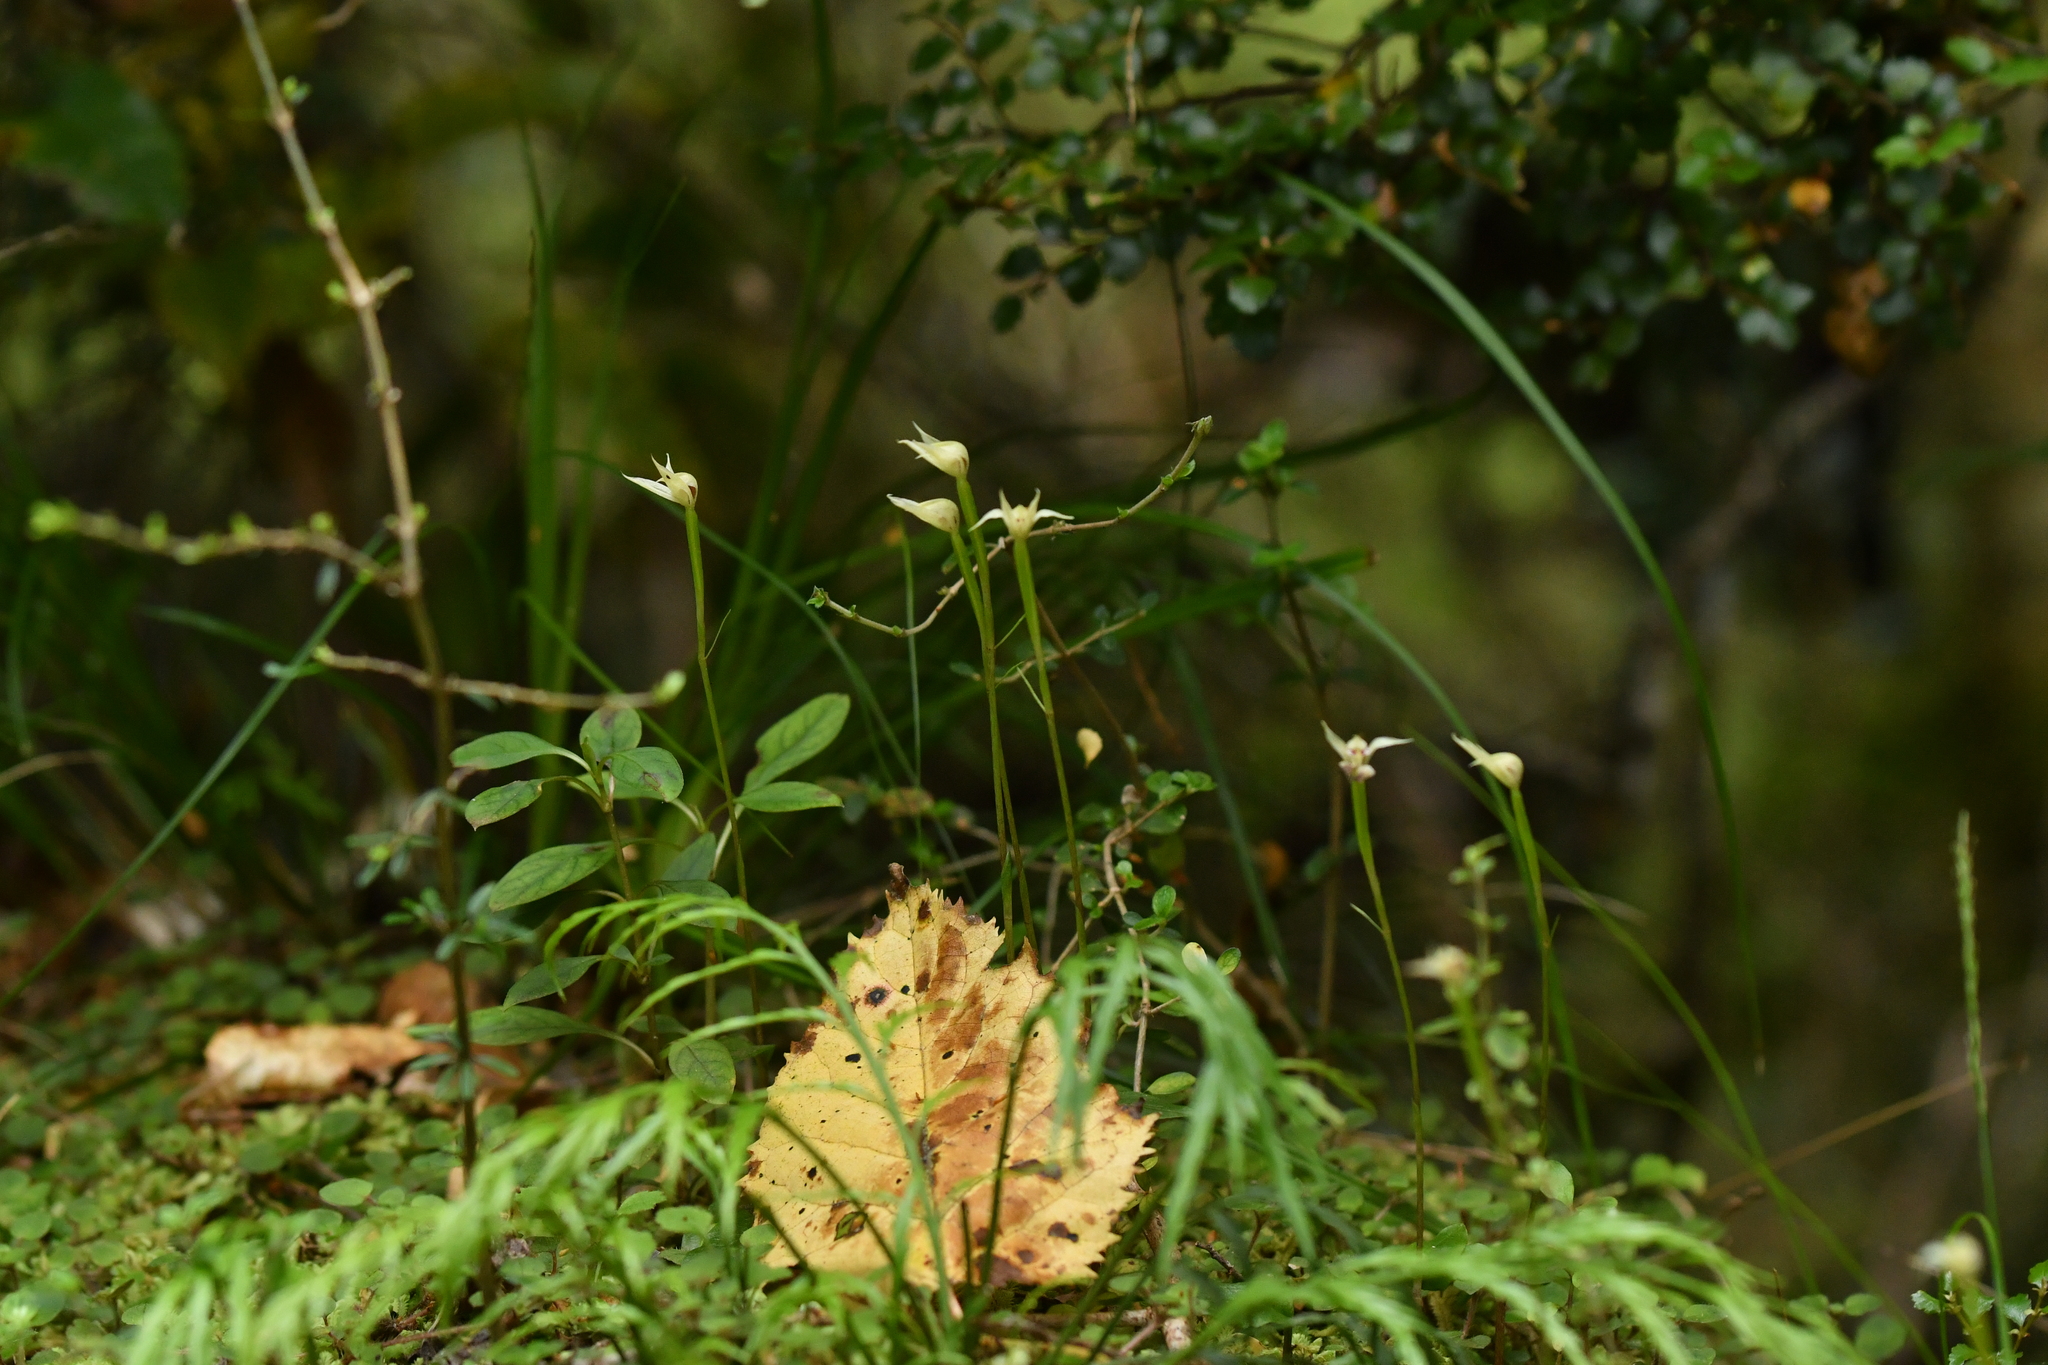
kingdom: Plantae
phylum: Tracheophyta
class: Liliopsida
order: Asparagales
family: Orchidaceae
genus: Adenochilus
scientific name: Adenochilus gracilis
